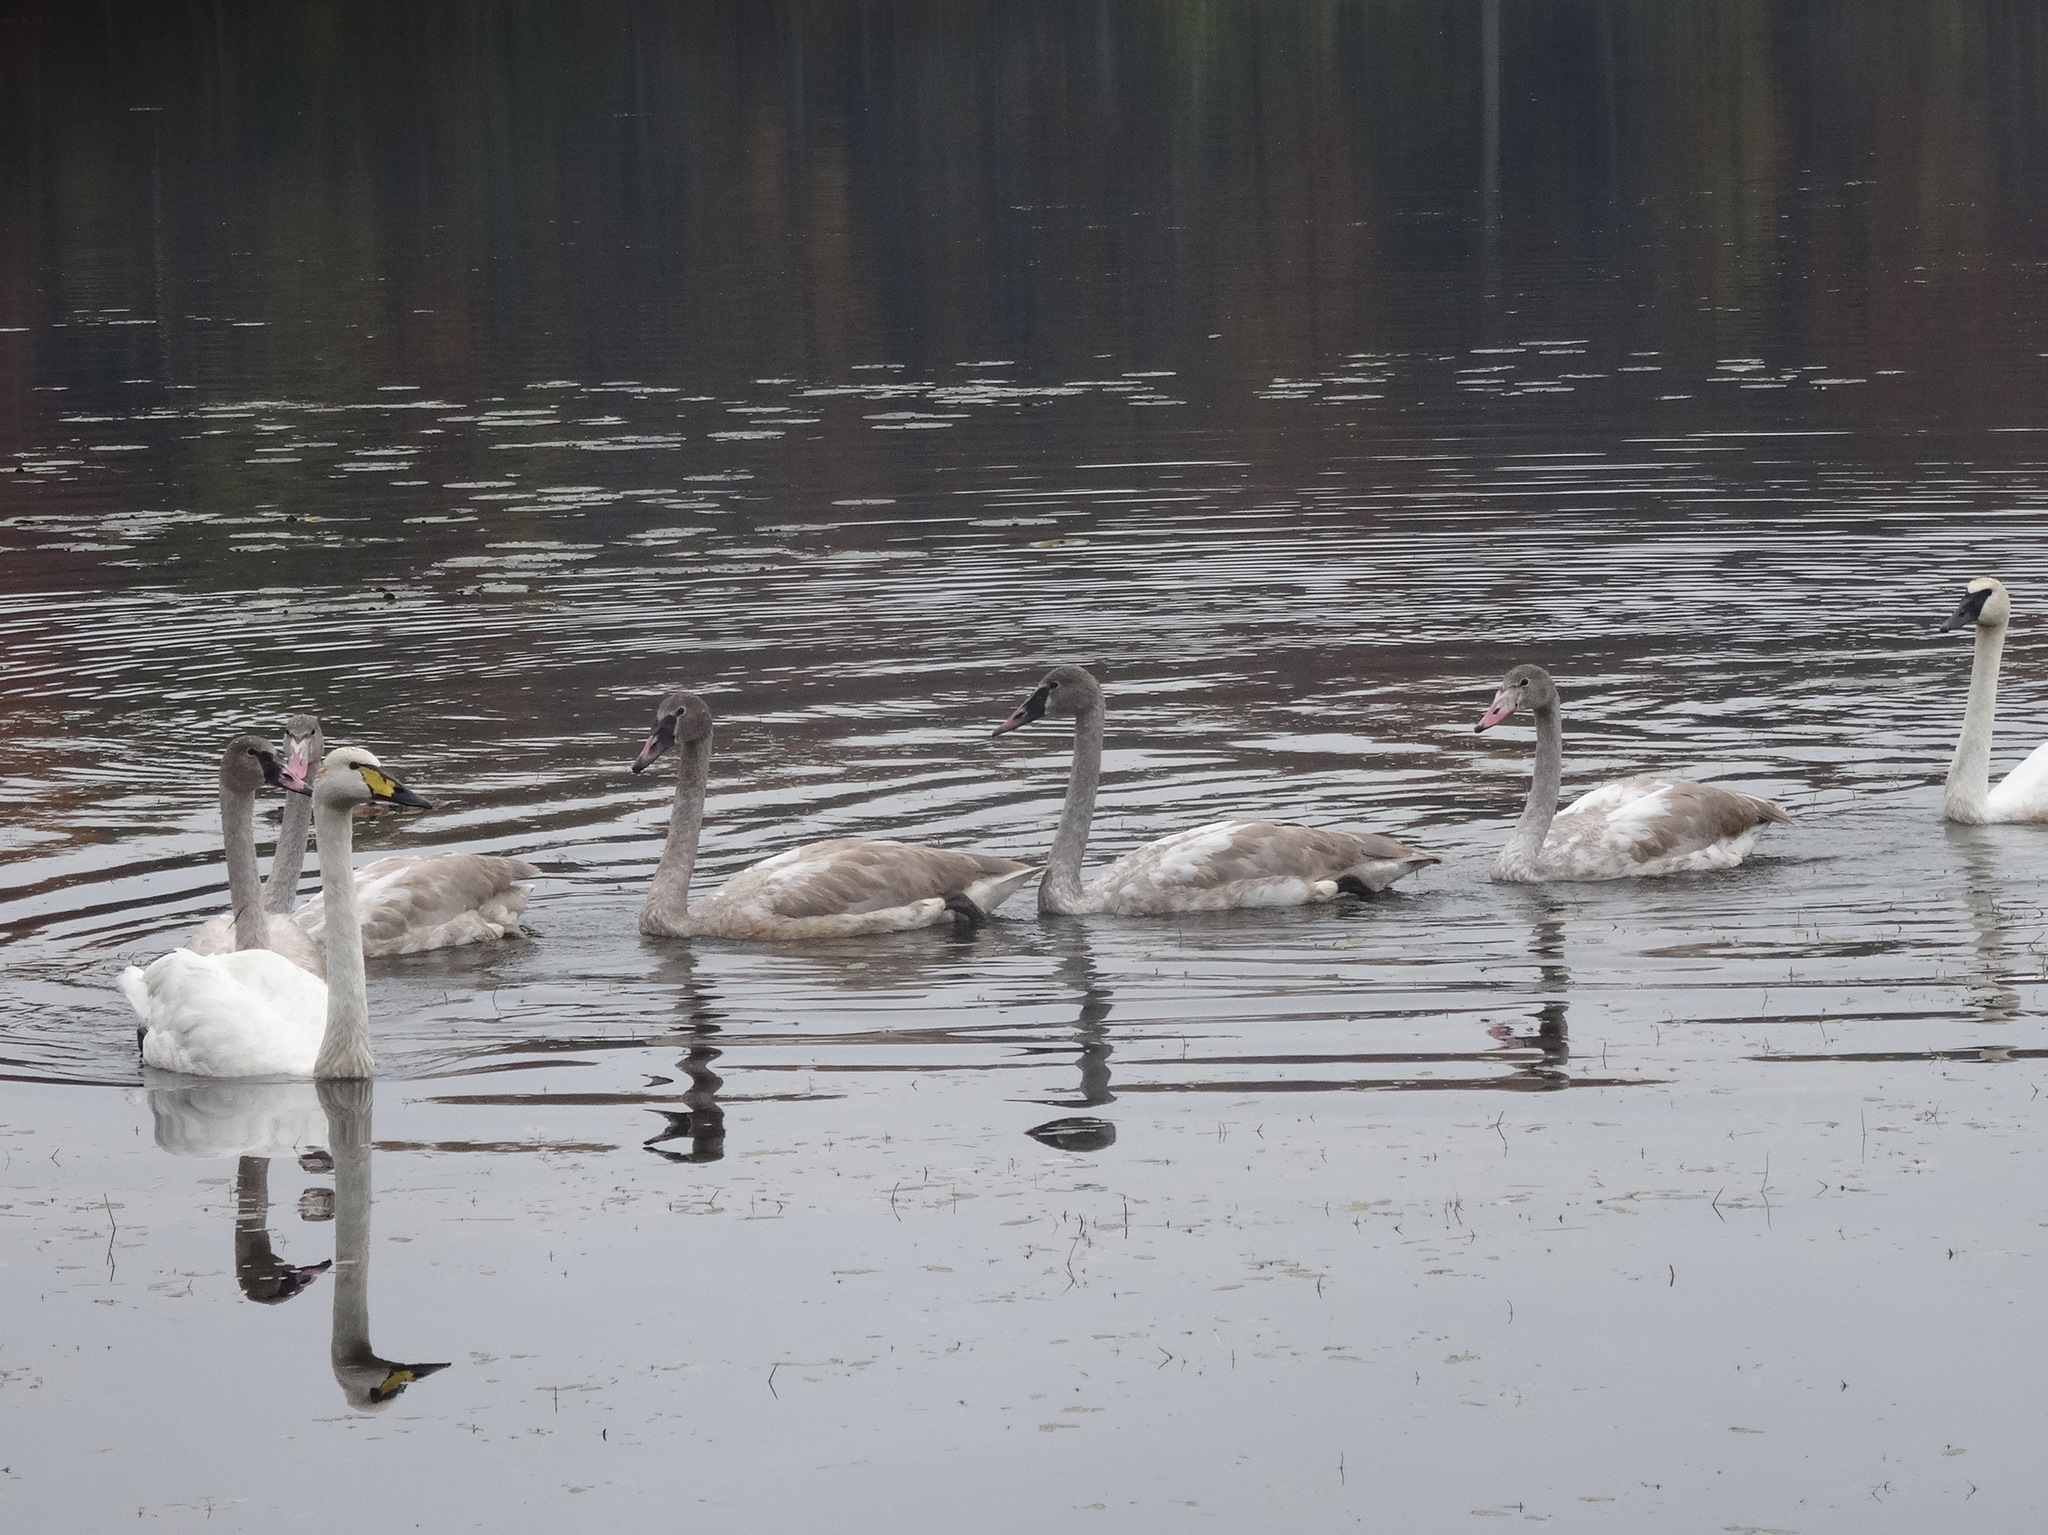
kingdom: Animalia
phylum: Chordata
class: Aves
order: Anseriformes
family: Anatidae
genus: Cygnus
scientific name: Cygnus
